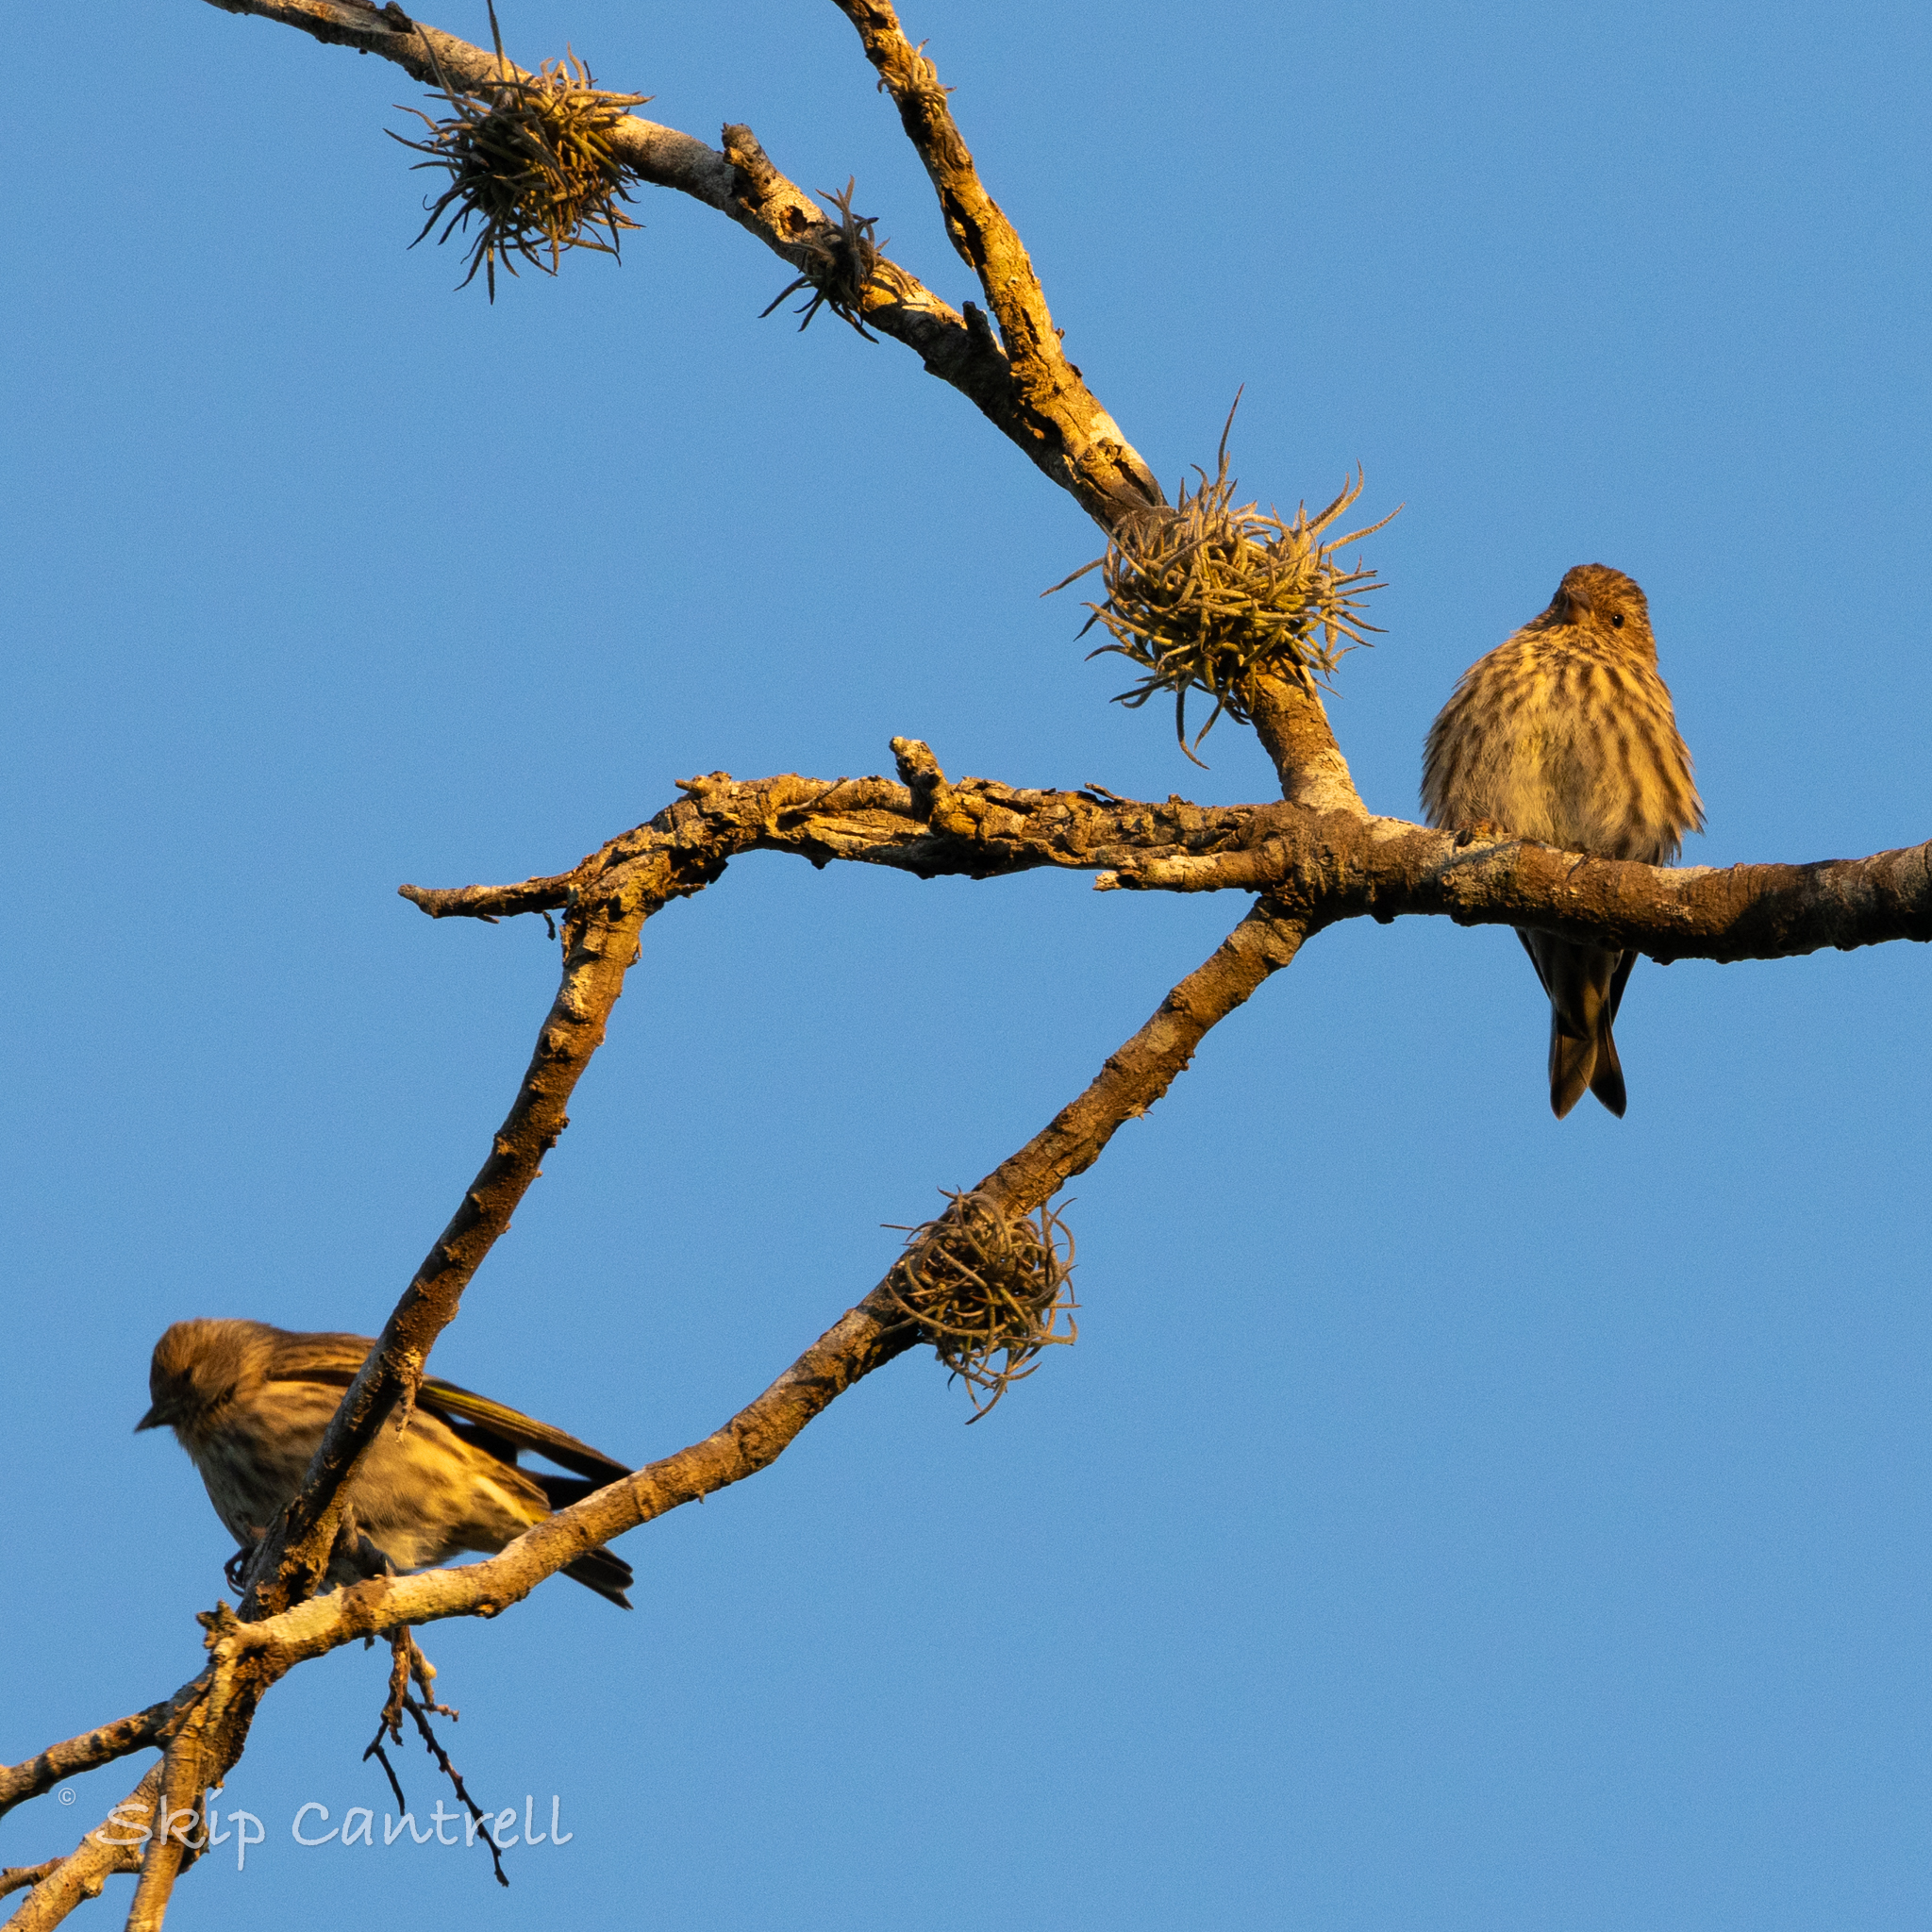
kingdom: Animalia
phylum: Chordata
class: Aves
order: Passeriformes
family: Fringillidae
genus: Spinus
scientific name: Spinus pinus
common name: Pine siskin
